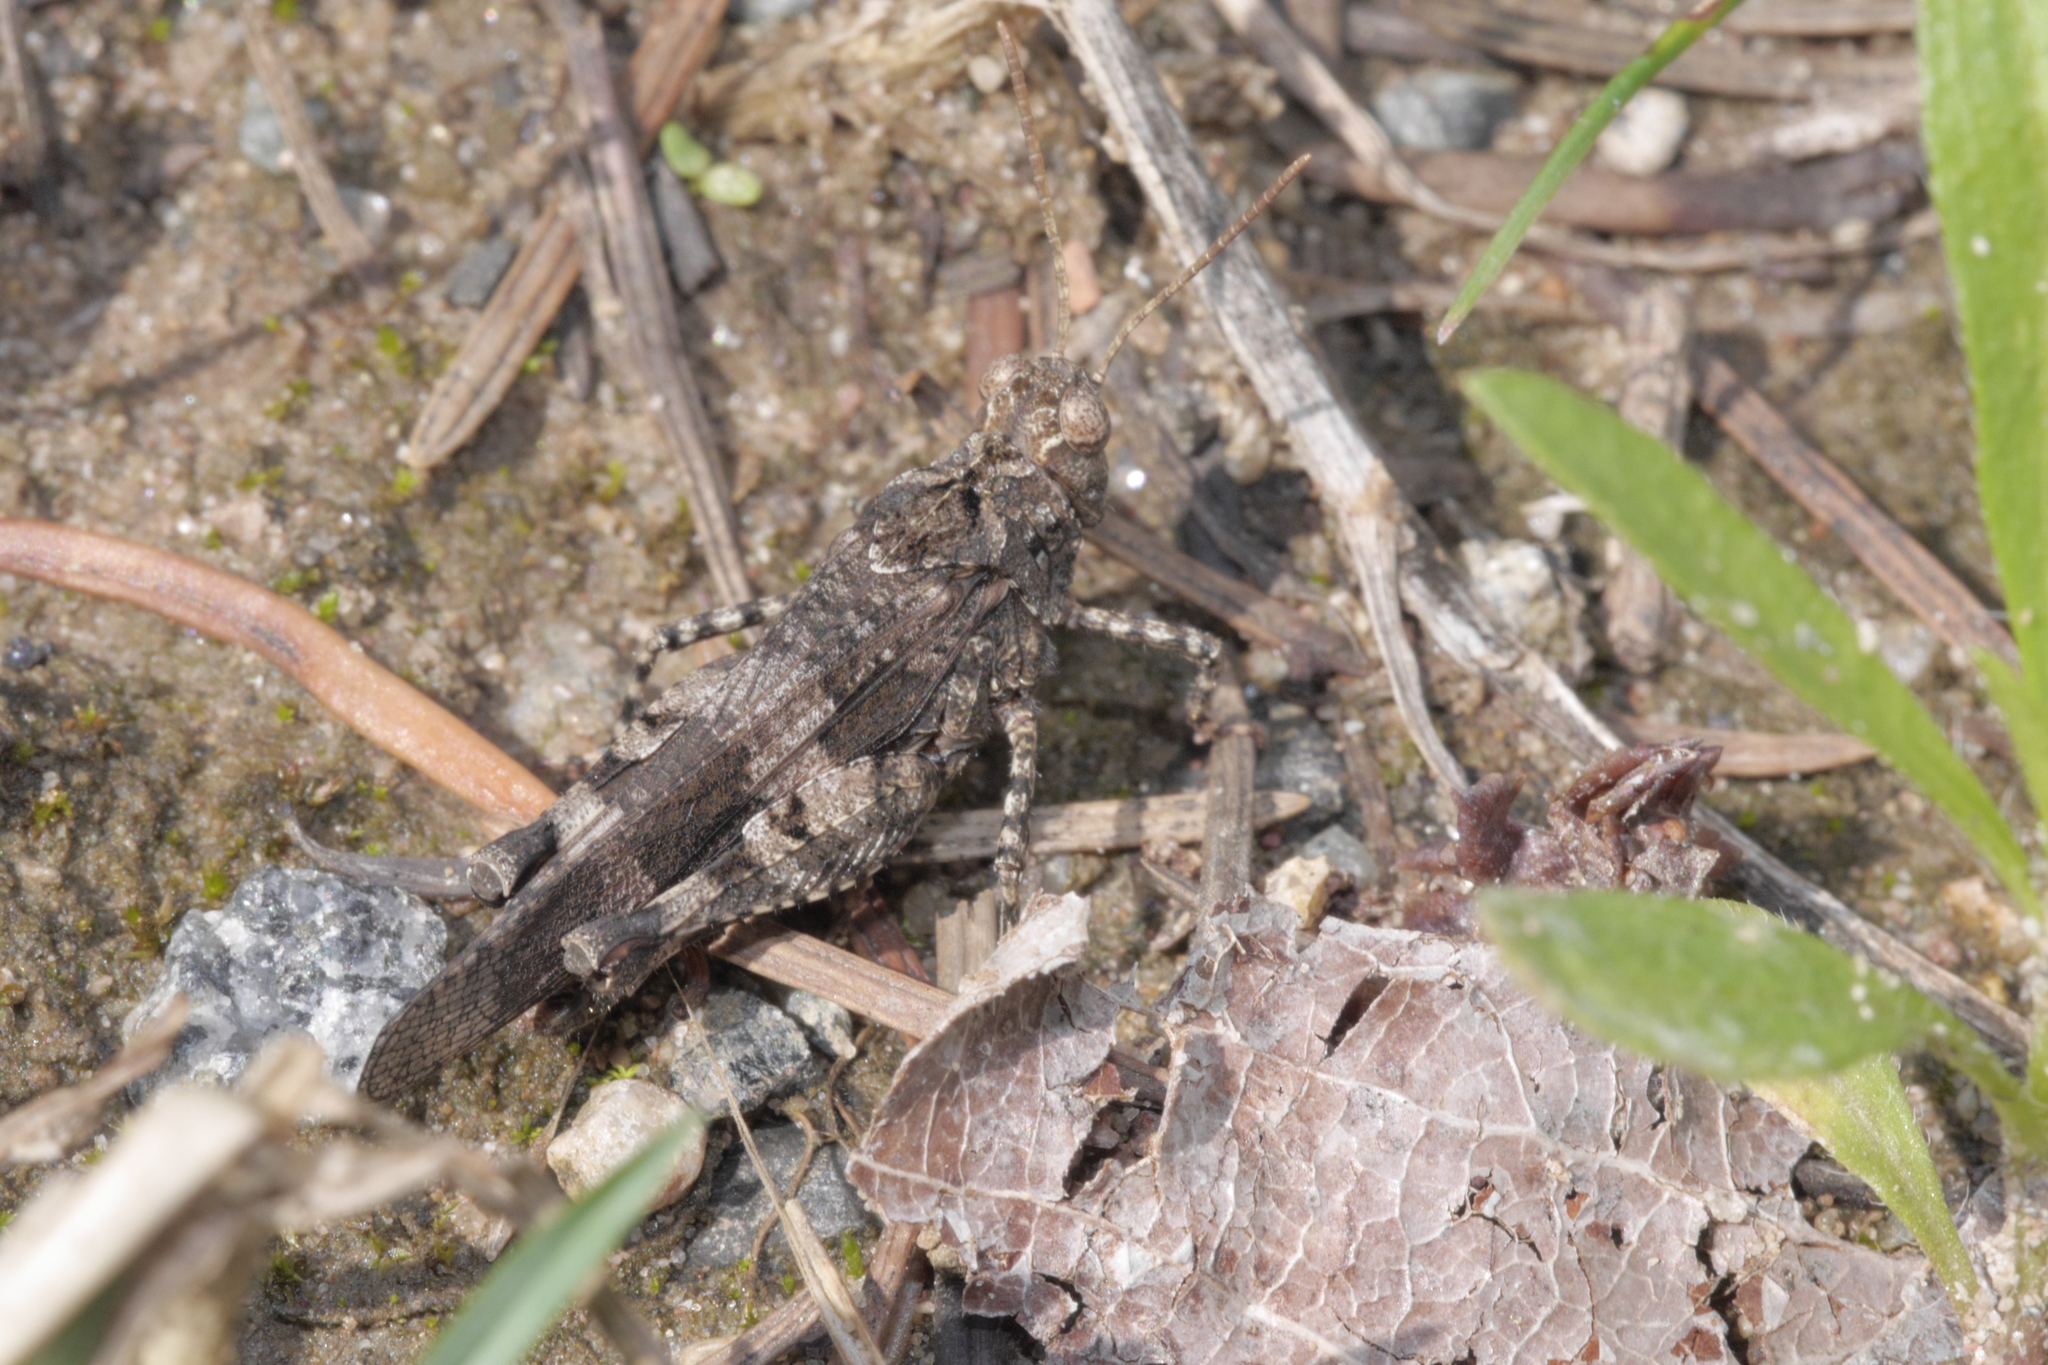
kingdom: Animalia
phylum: Arthropoda
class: Insecta
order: Orthoptera
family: Acrididae
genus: Oedipoda
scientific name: Oedipoda caerulescens
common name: Blue-winged grasshopper
